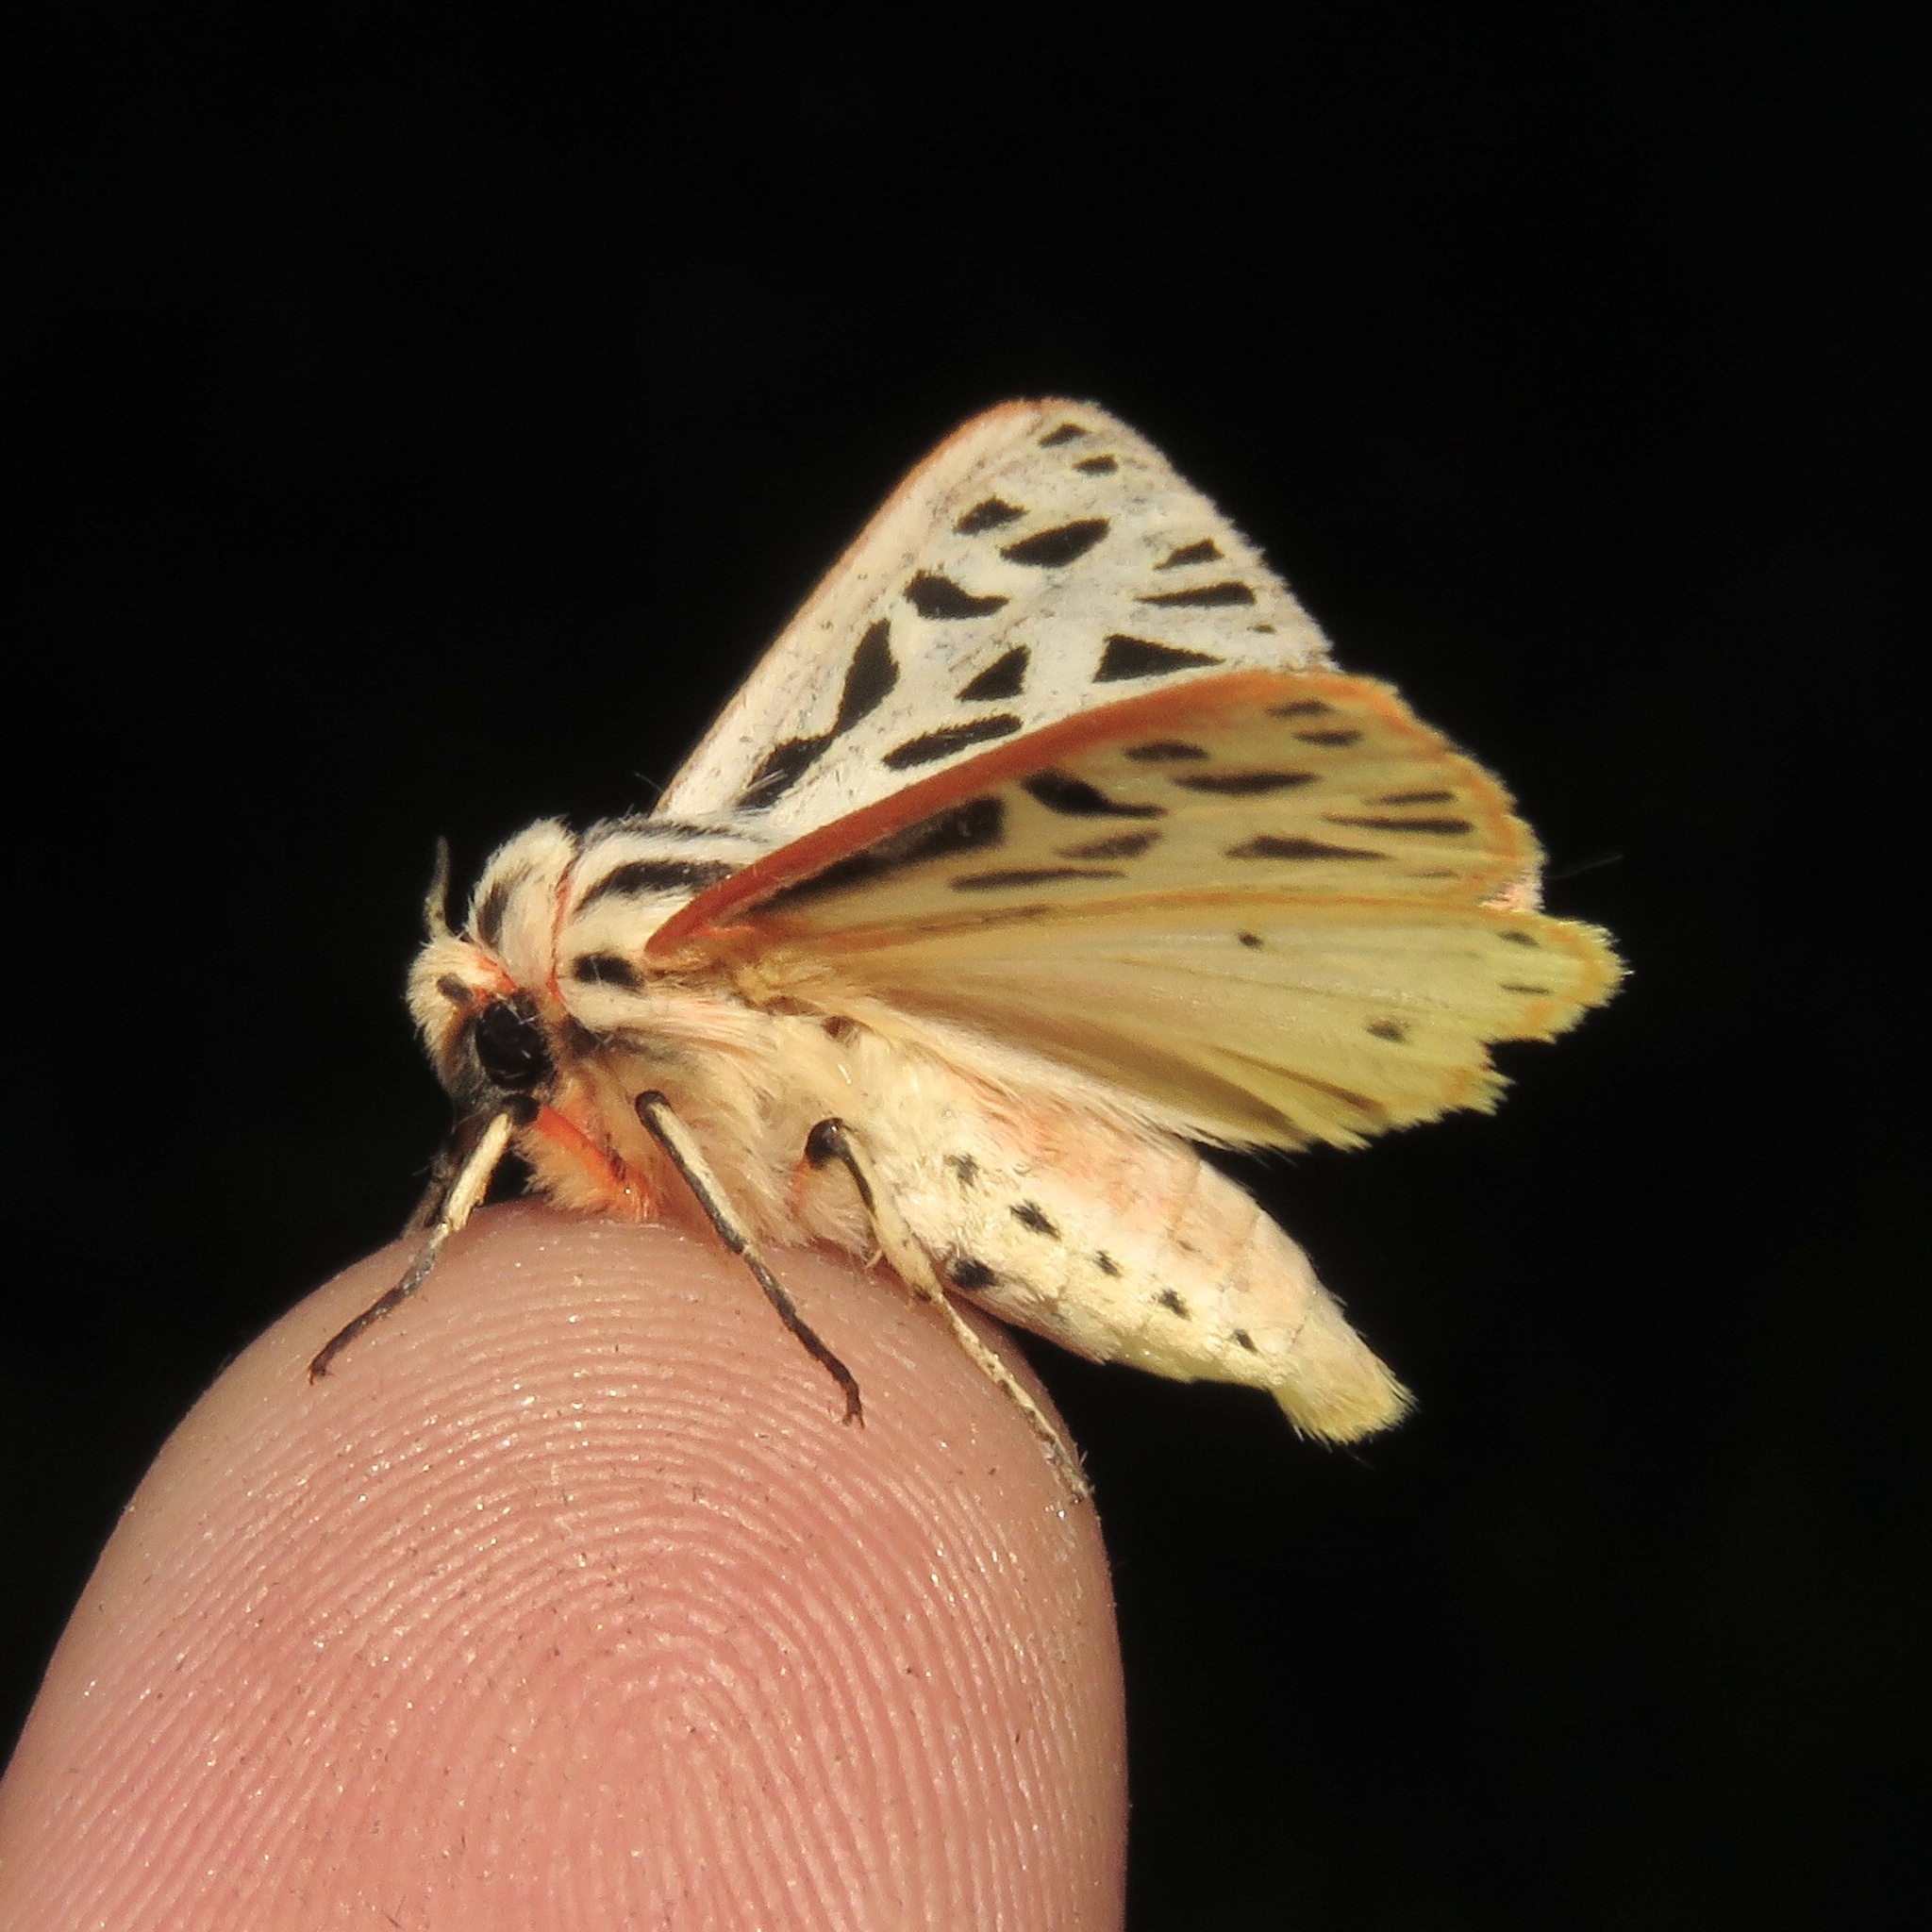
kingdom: Animalia
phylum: Arthropoda
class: Insecta
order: Lepidoptera
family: Erebidae
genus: Apantesis
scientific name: Apantesis arge
